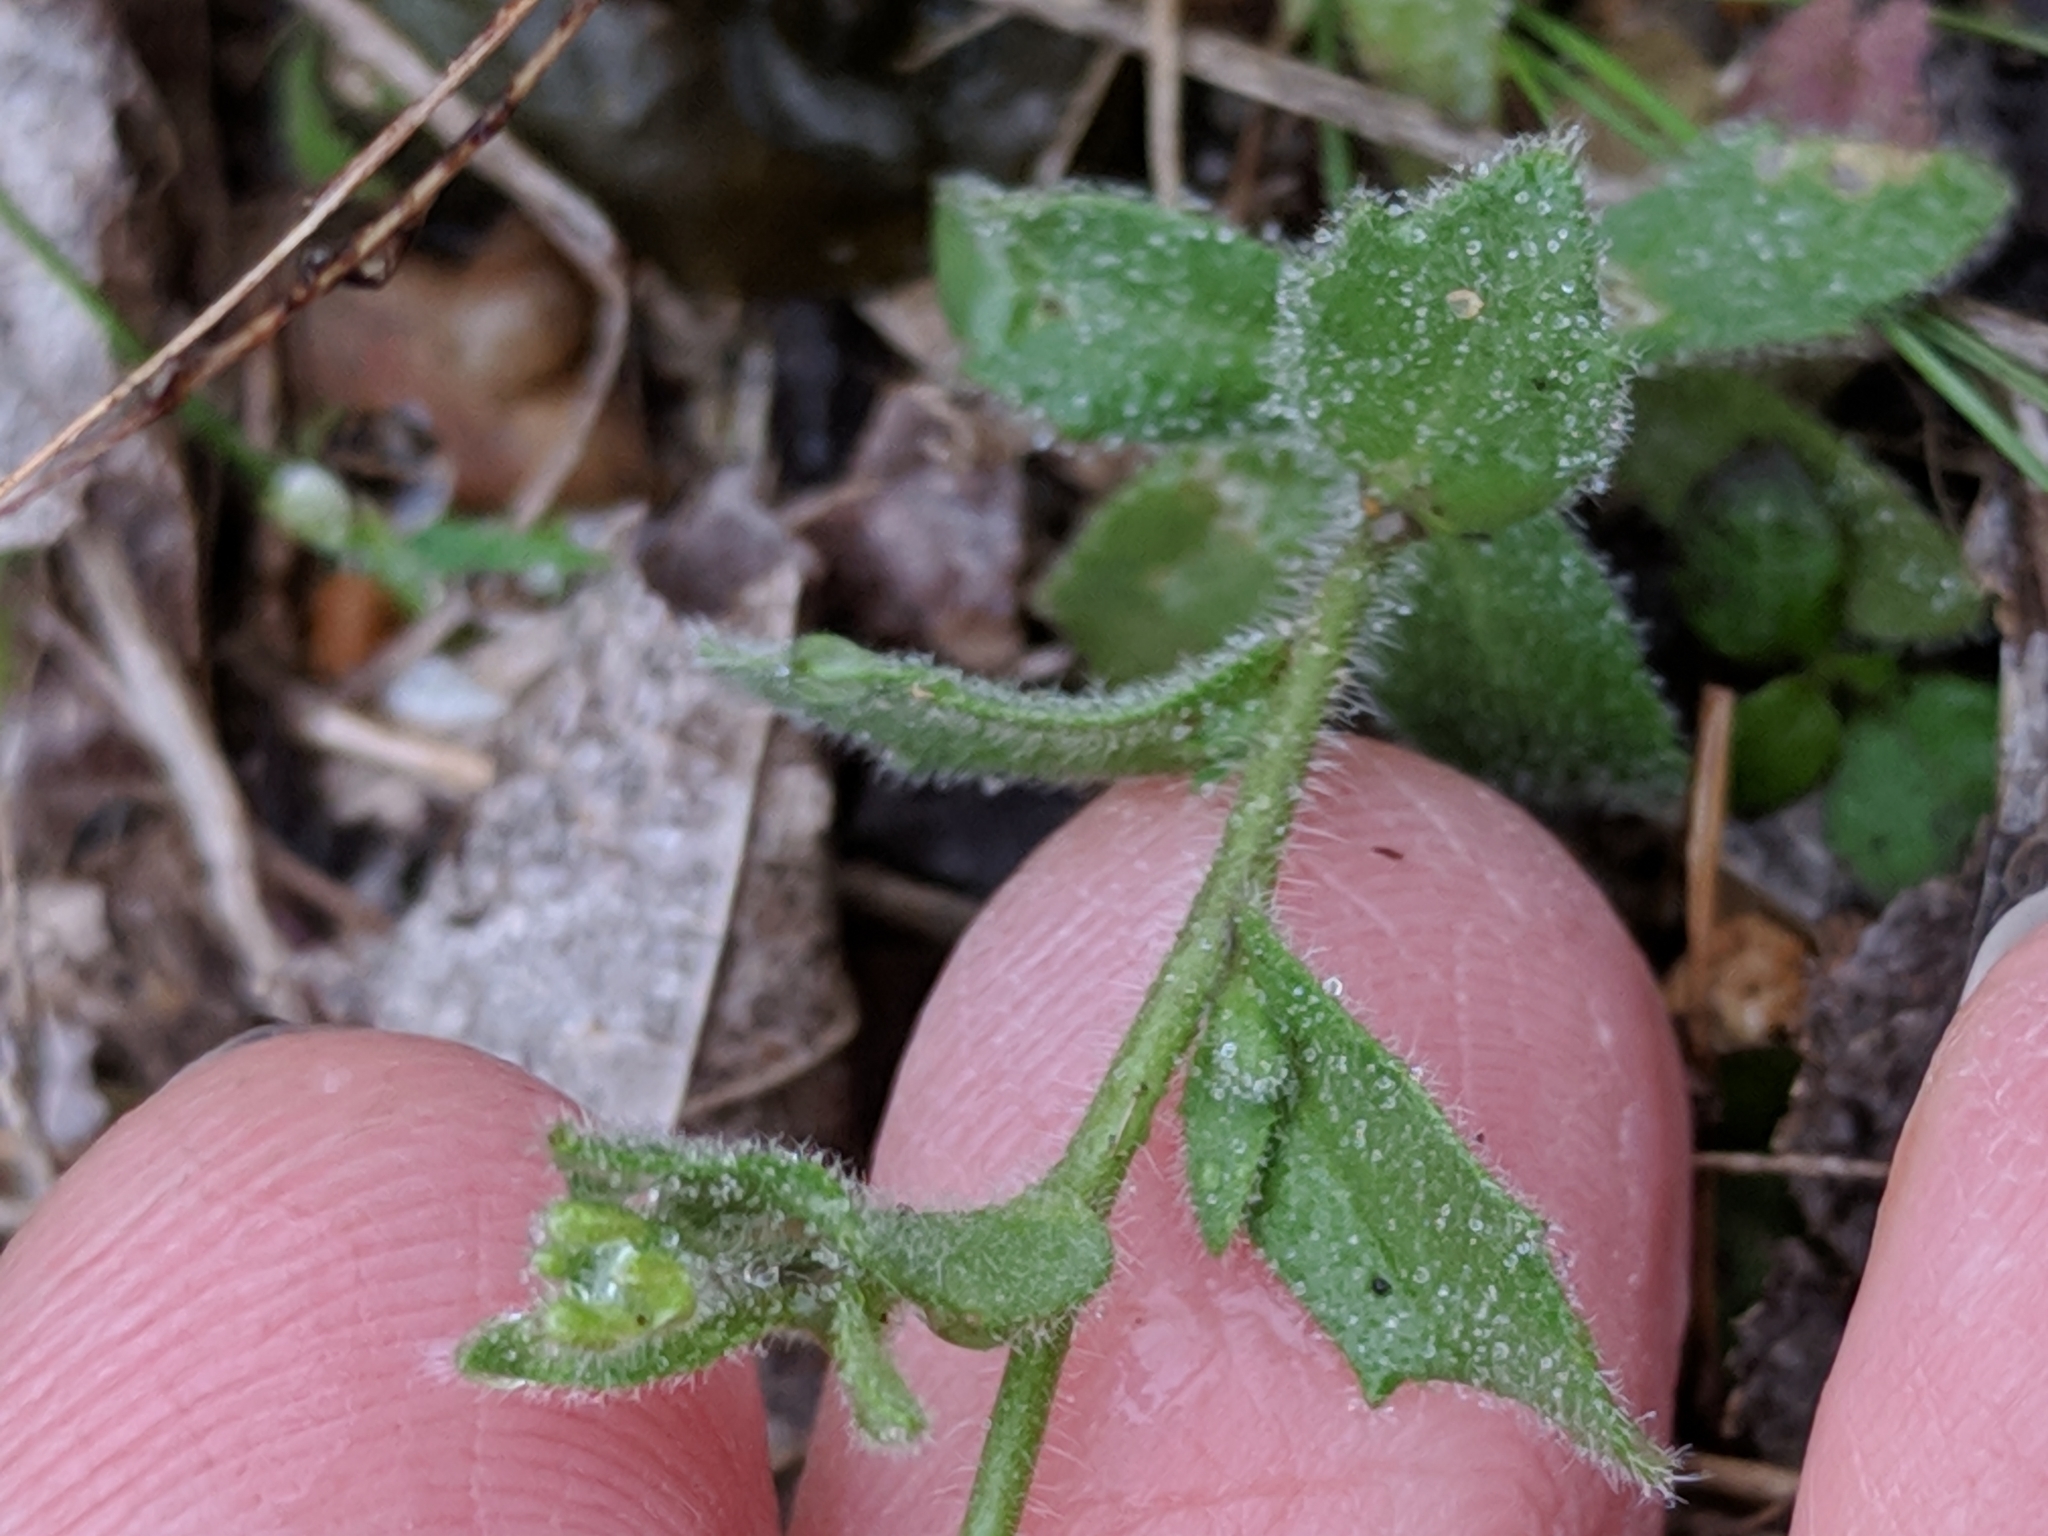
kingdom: Plantae
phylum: Tracheophyta
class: Magnoliopsida
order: Brassicales
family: Brassicaceae
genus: Tomostima
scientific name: Tomostima platycarpa
